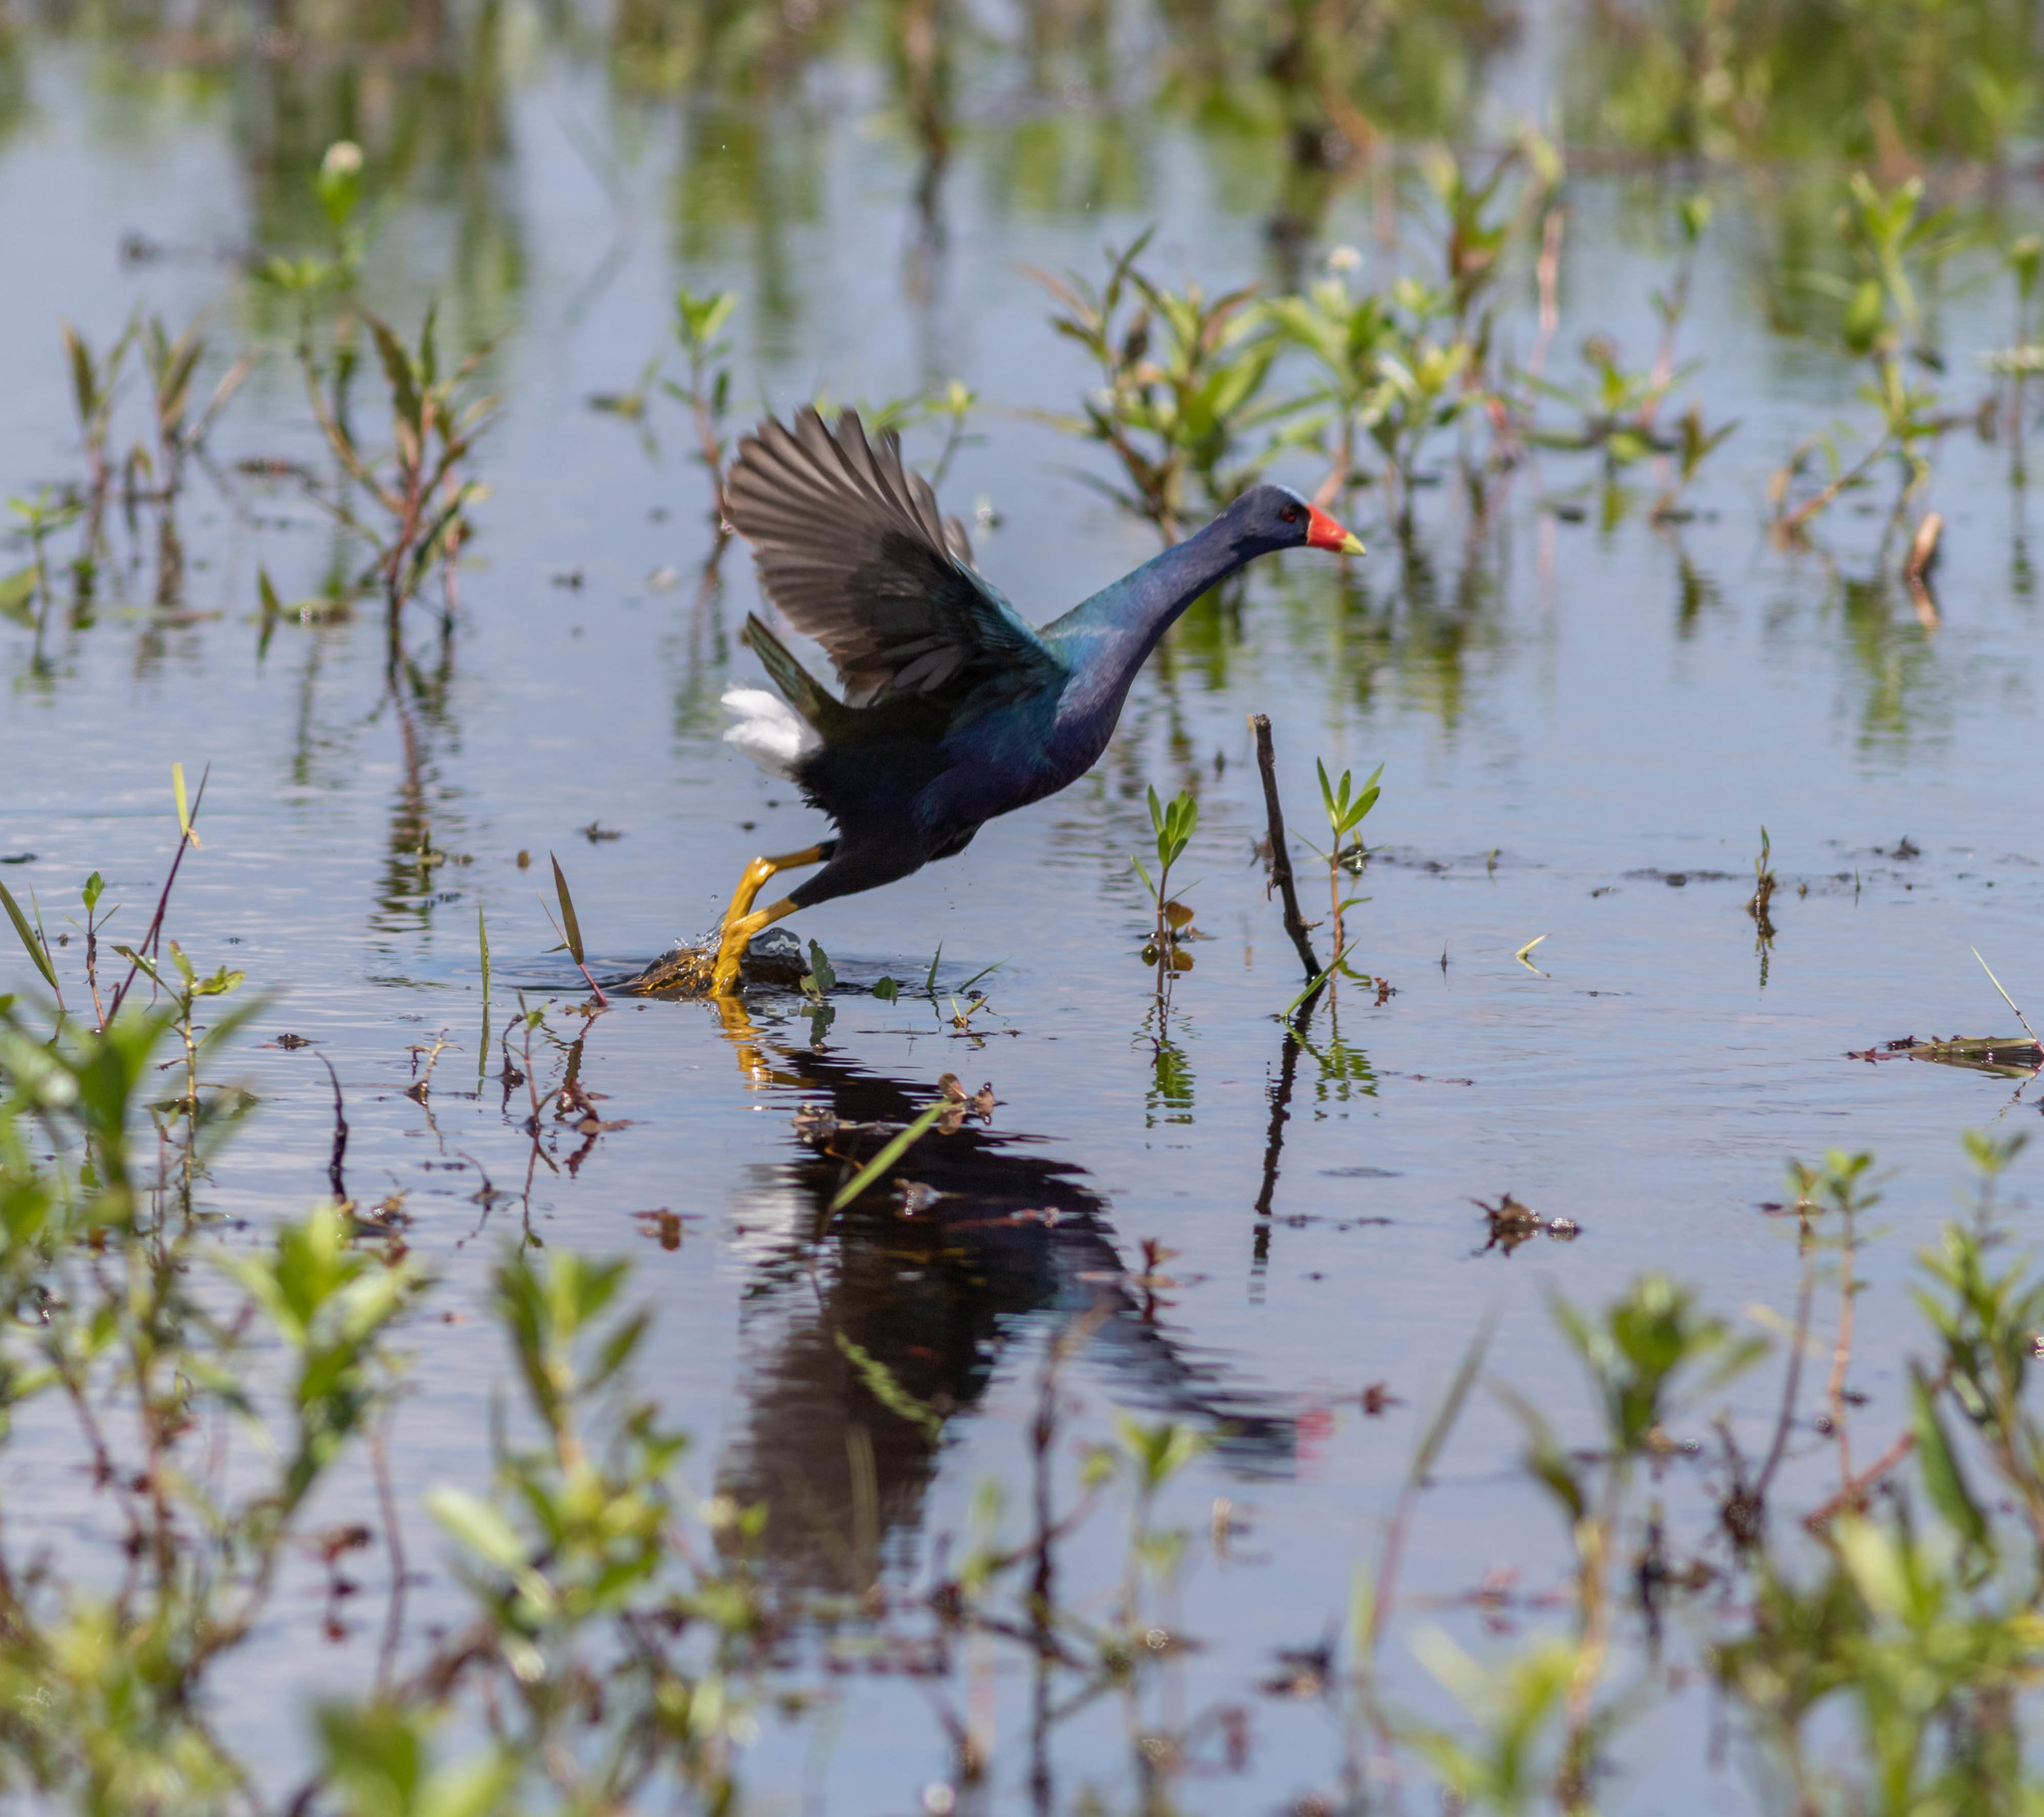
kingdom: Animalia
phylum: Chordata
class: Aves
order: Gruiformes
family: Rallidae
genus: Porphyrio
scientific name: Porphyrio martinica
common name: Purple gallinule
